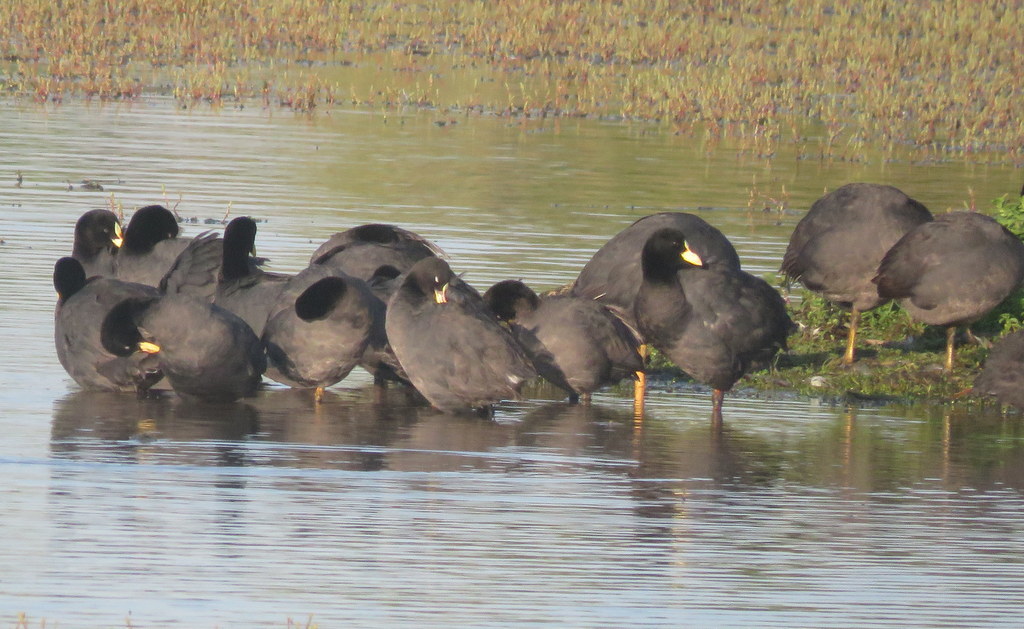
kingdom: Animalia
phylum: Chordata
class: Aves
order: Gruiformes
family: Rallidae
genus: Fulica
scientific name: Fulica armillata
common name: Red-gartered coot
